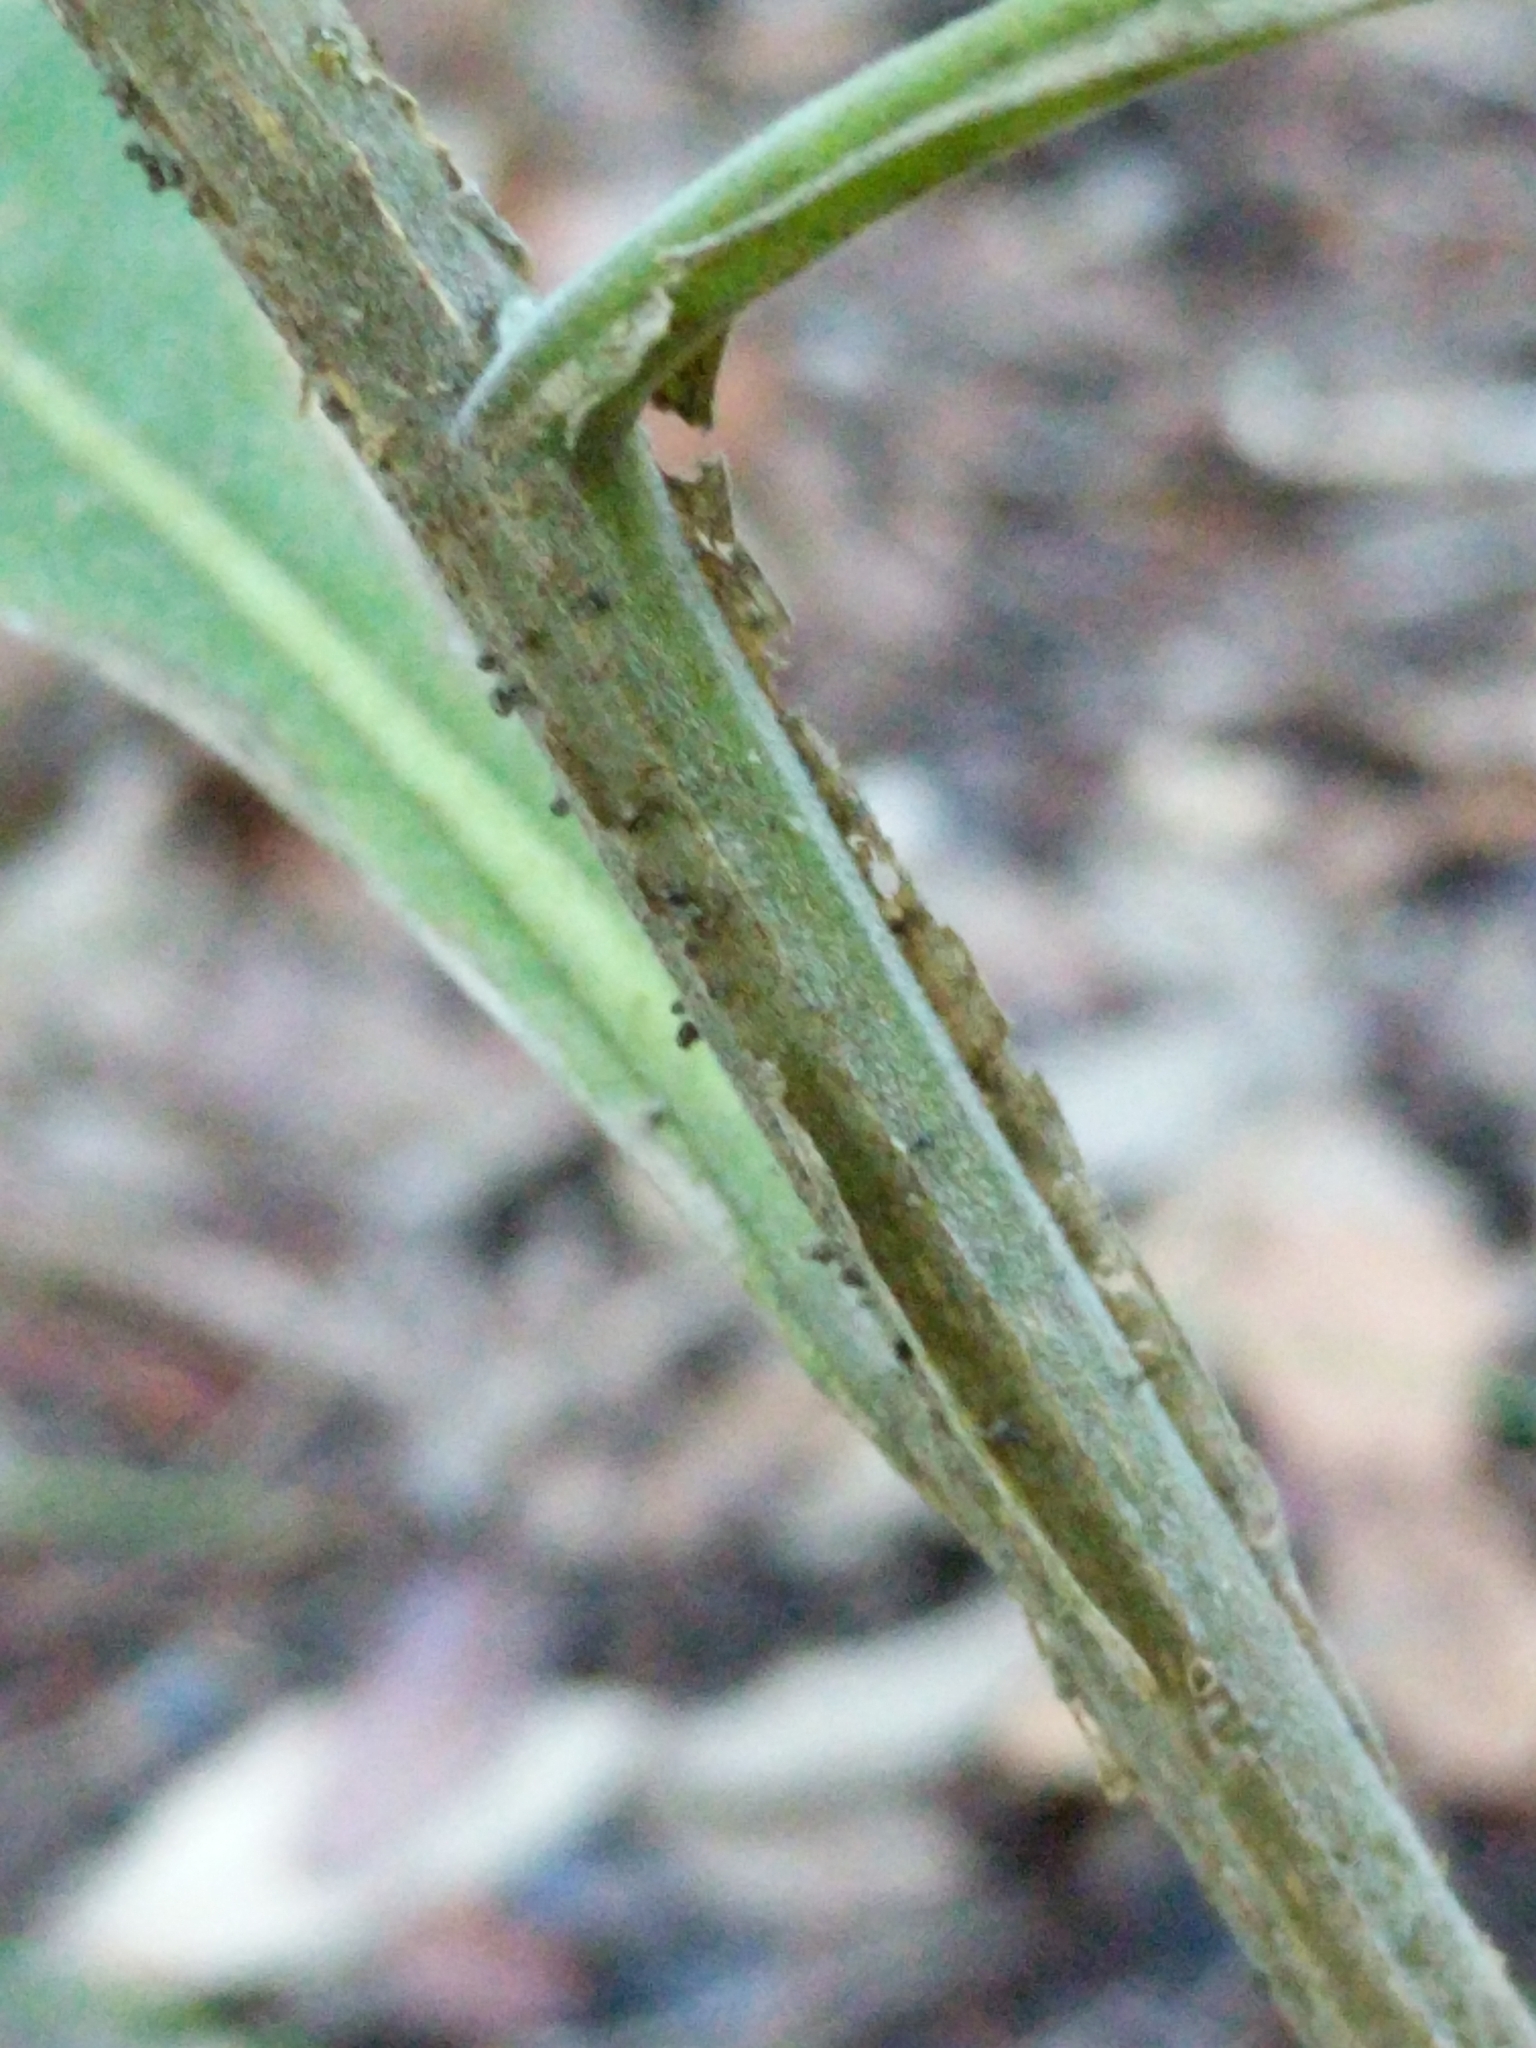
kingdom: Plantae
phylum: Tracheophyta
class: Magnoliopsida
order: Asterales
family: Asteraceae
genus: Verbesina
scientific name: Verbesina virginica
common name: Frostweed
